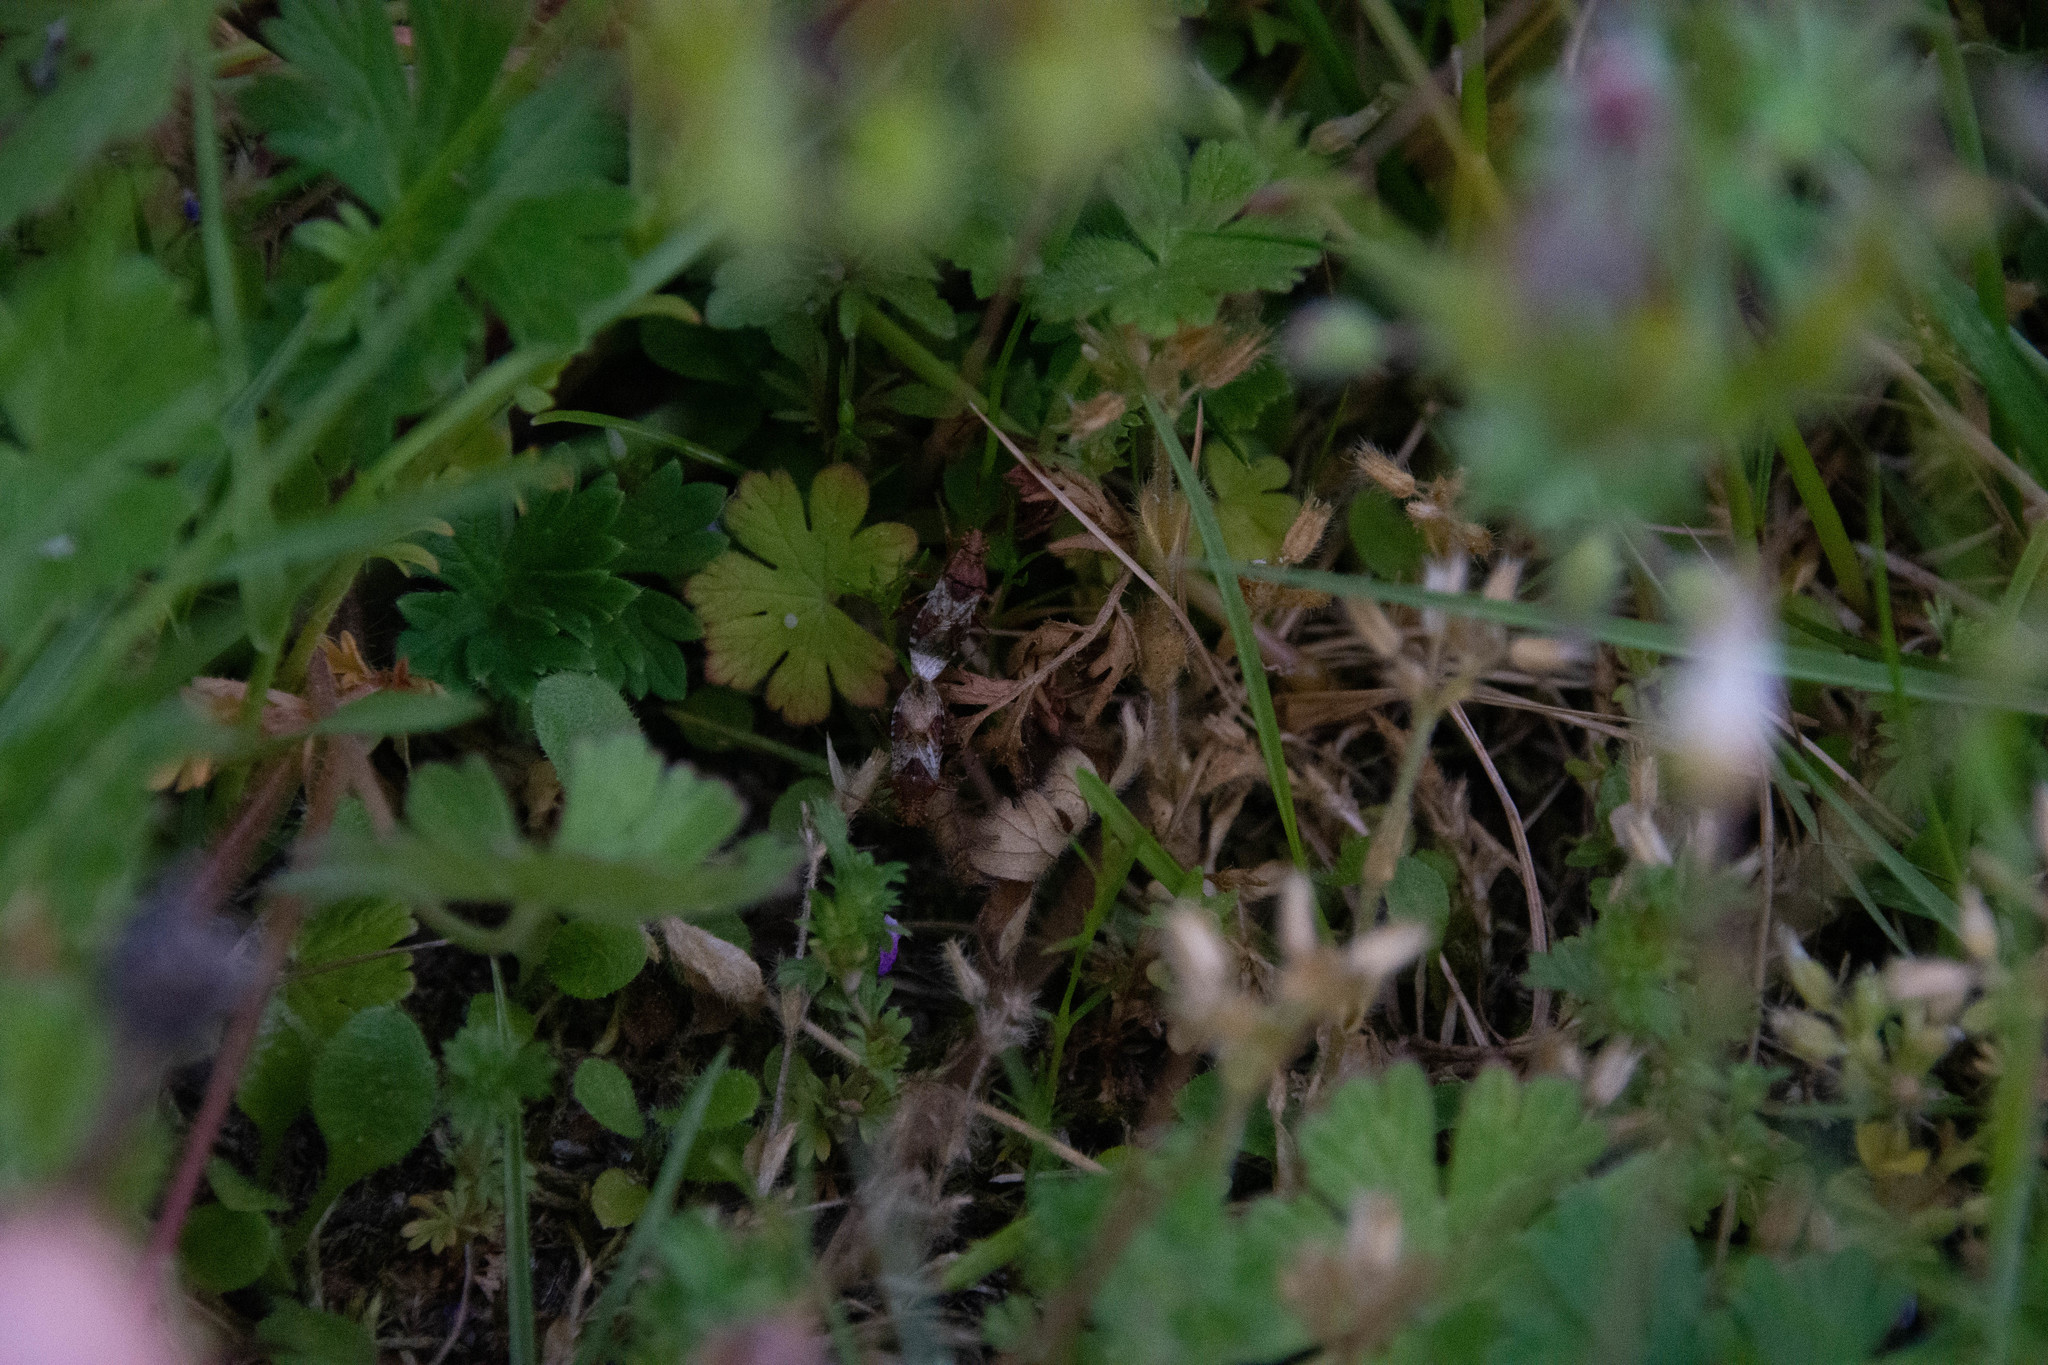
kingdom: Animalia
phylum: Arthropoda
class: Insecta
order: Hemiptera
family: Rhopalidae
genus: Rhopalus
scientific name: Rhopalus subrufus
